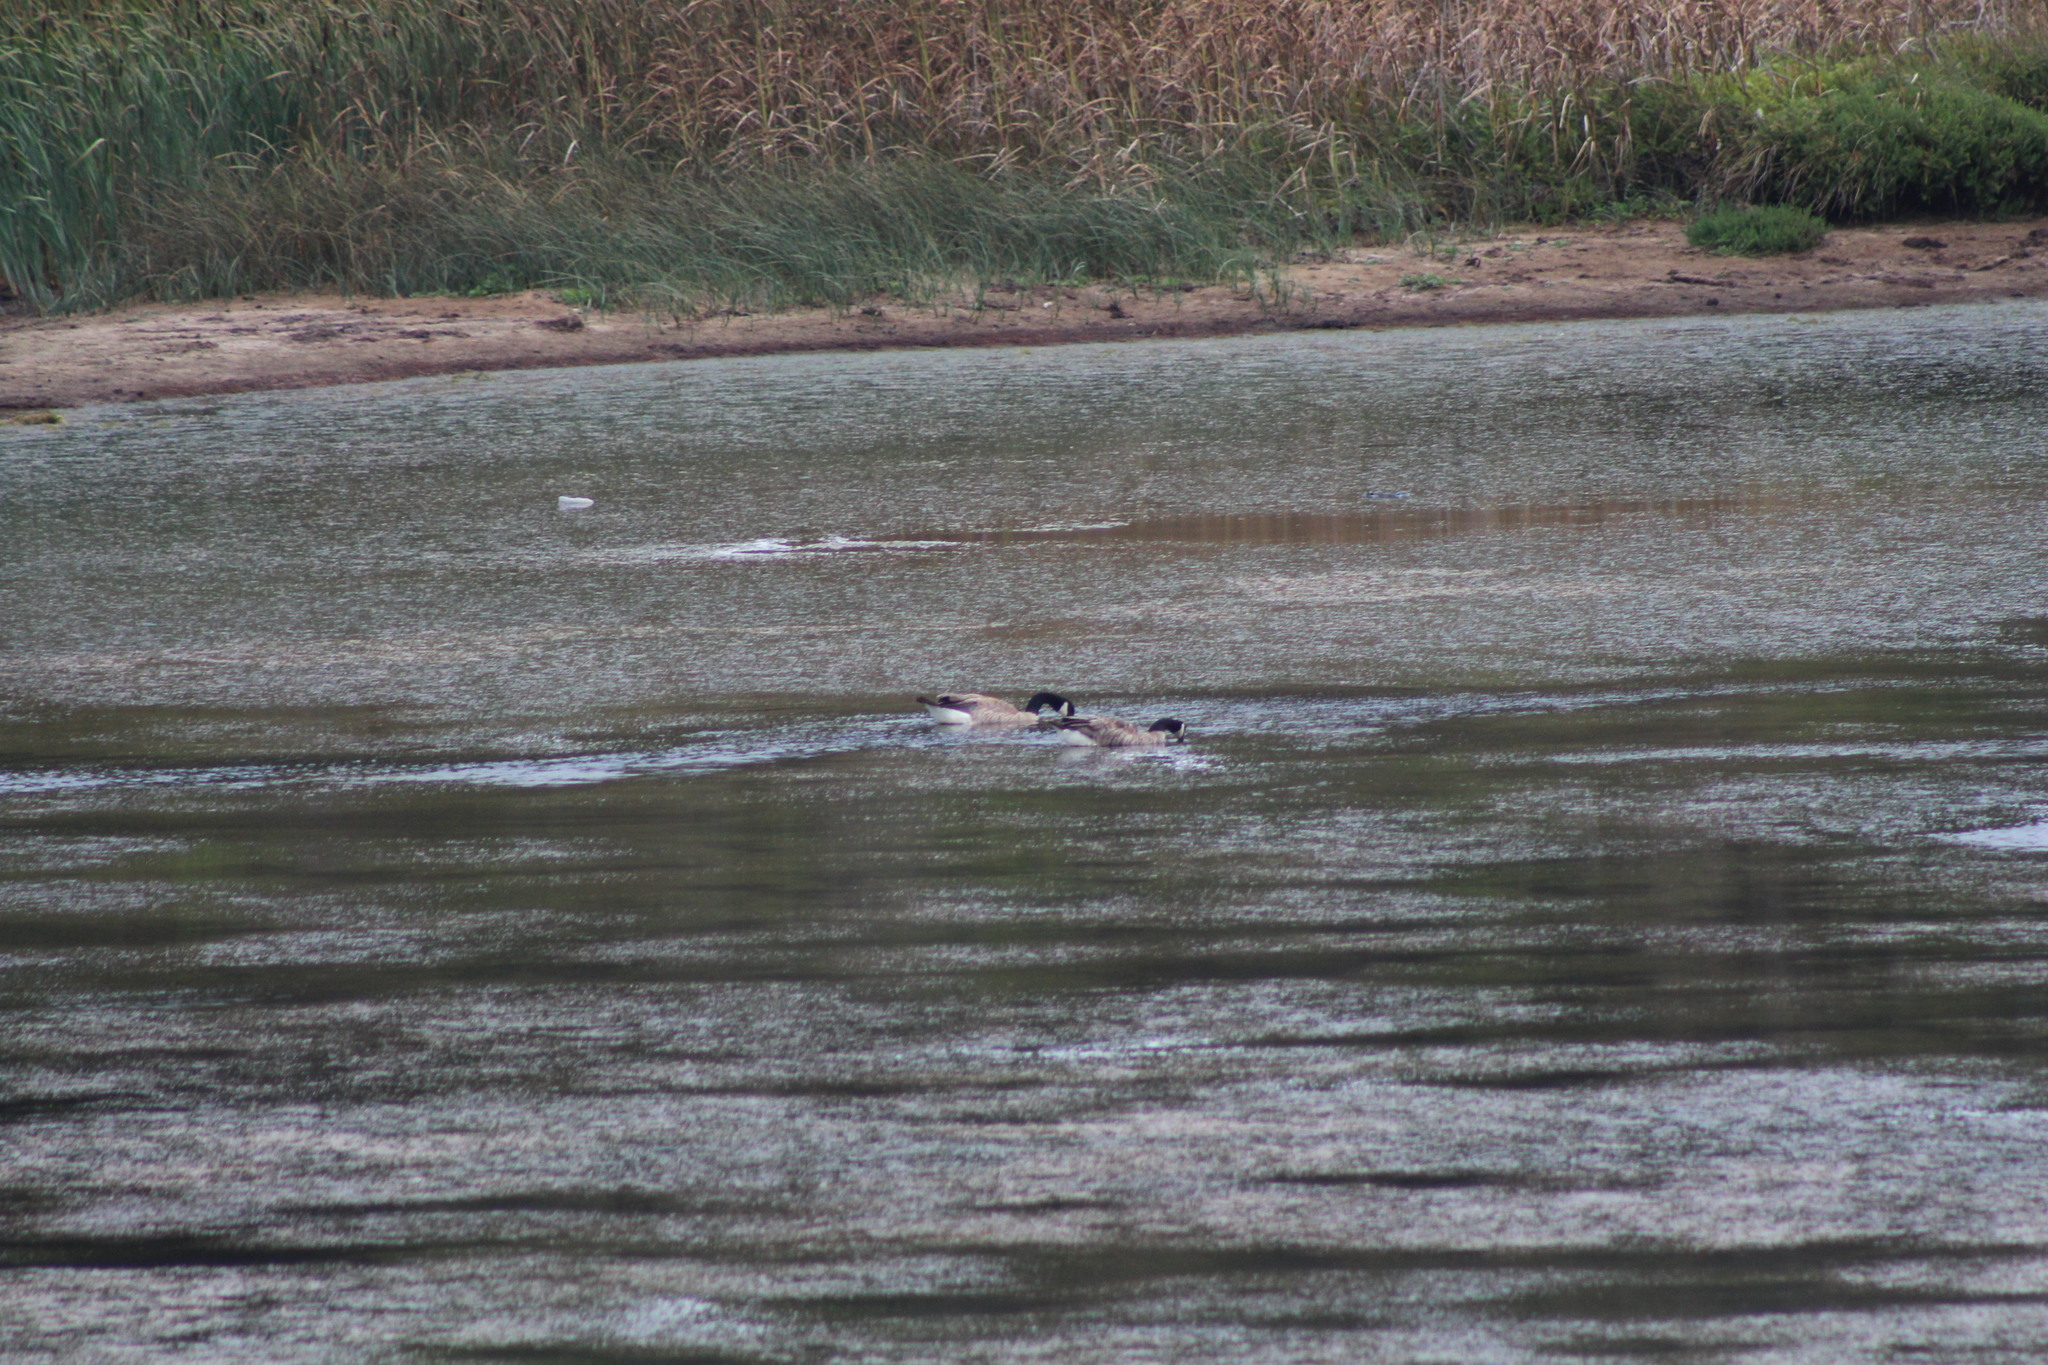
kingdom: Animalia
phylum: Chordata
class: Aves
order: Anseriformes
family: Anatidae
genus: Branta
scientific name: Branta canadensis
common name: Canada goose
